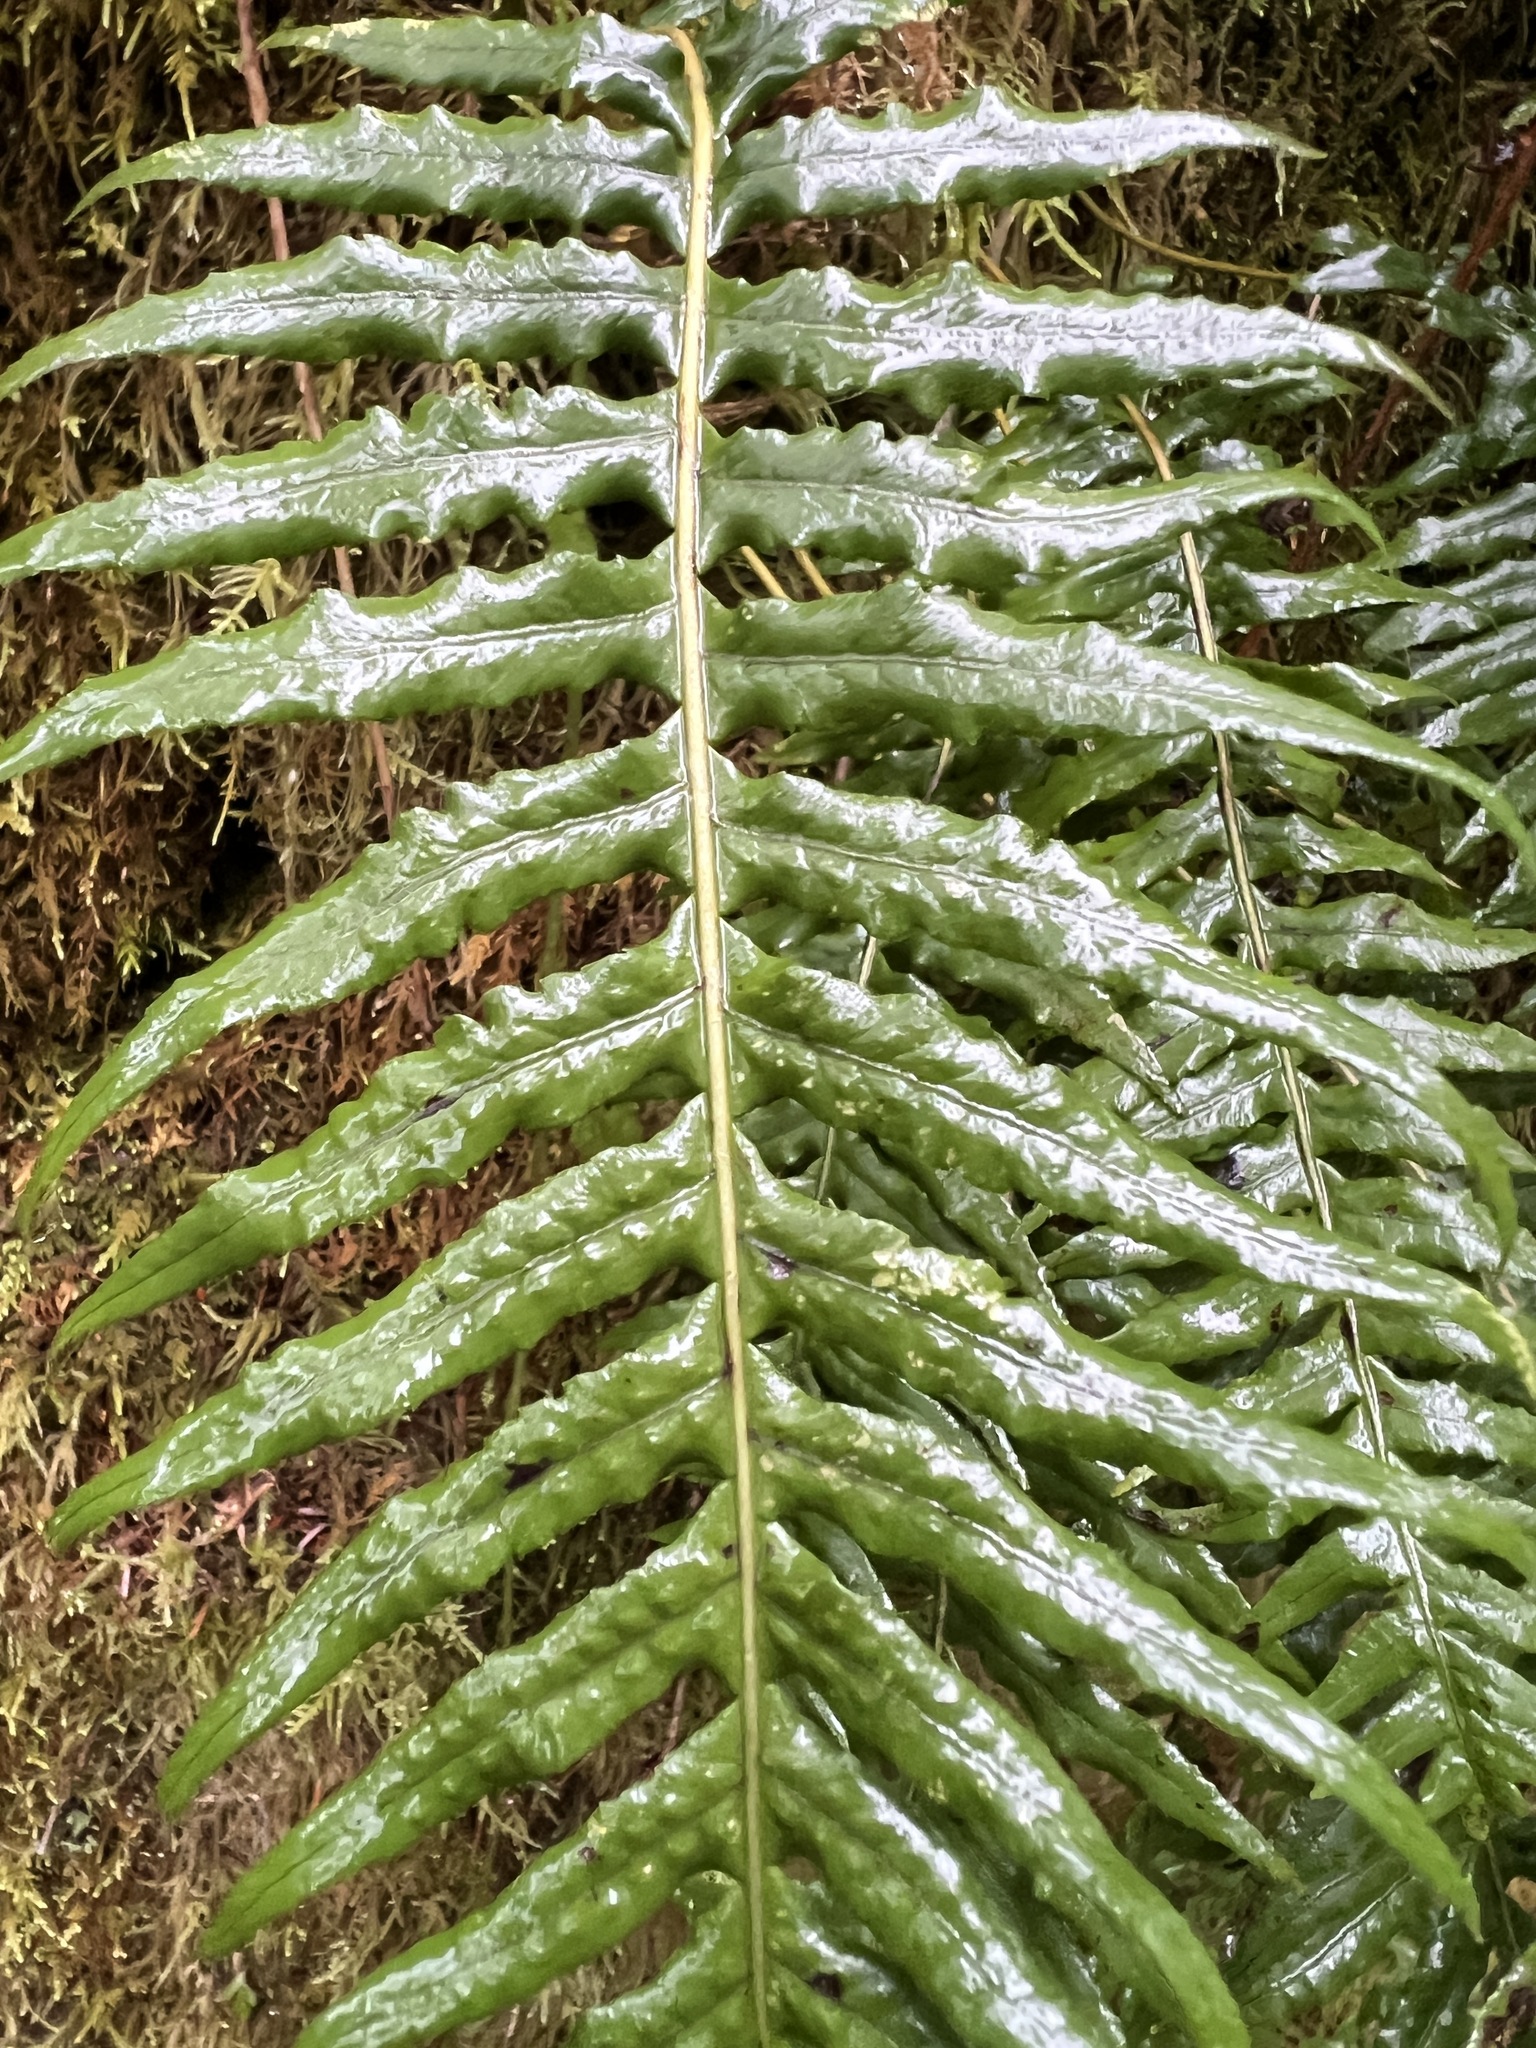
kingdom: Plantae
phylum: Tracheophyta
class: Polypodiopsida
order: Polypodiales
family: Polypodiaceae
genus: Polypodium
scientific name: Polypodium glycyrrhiza
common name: Licorice fern
